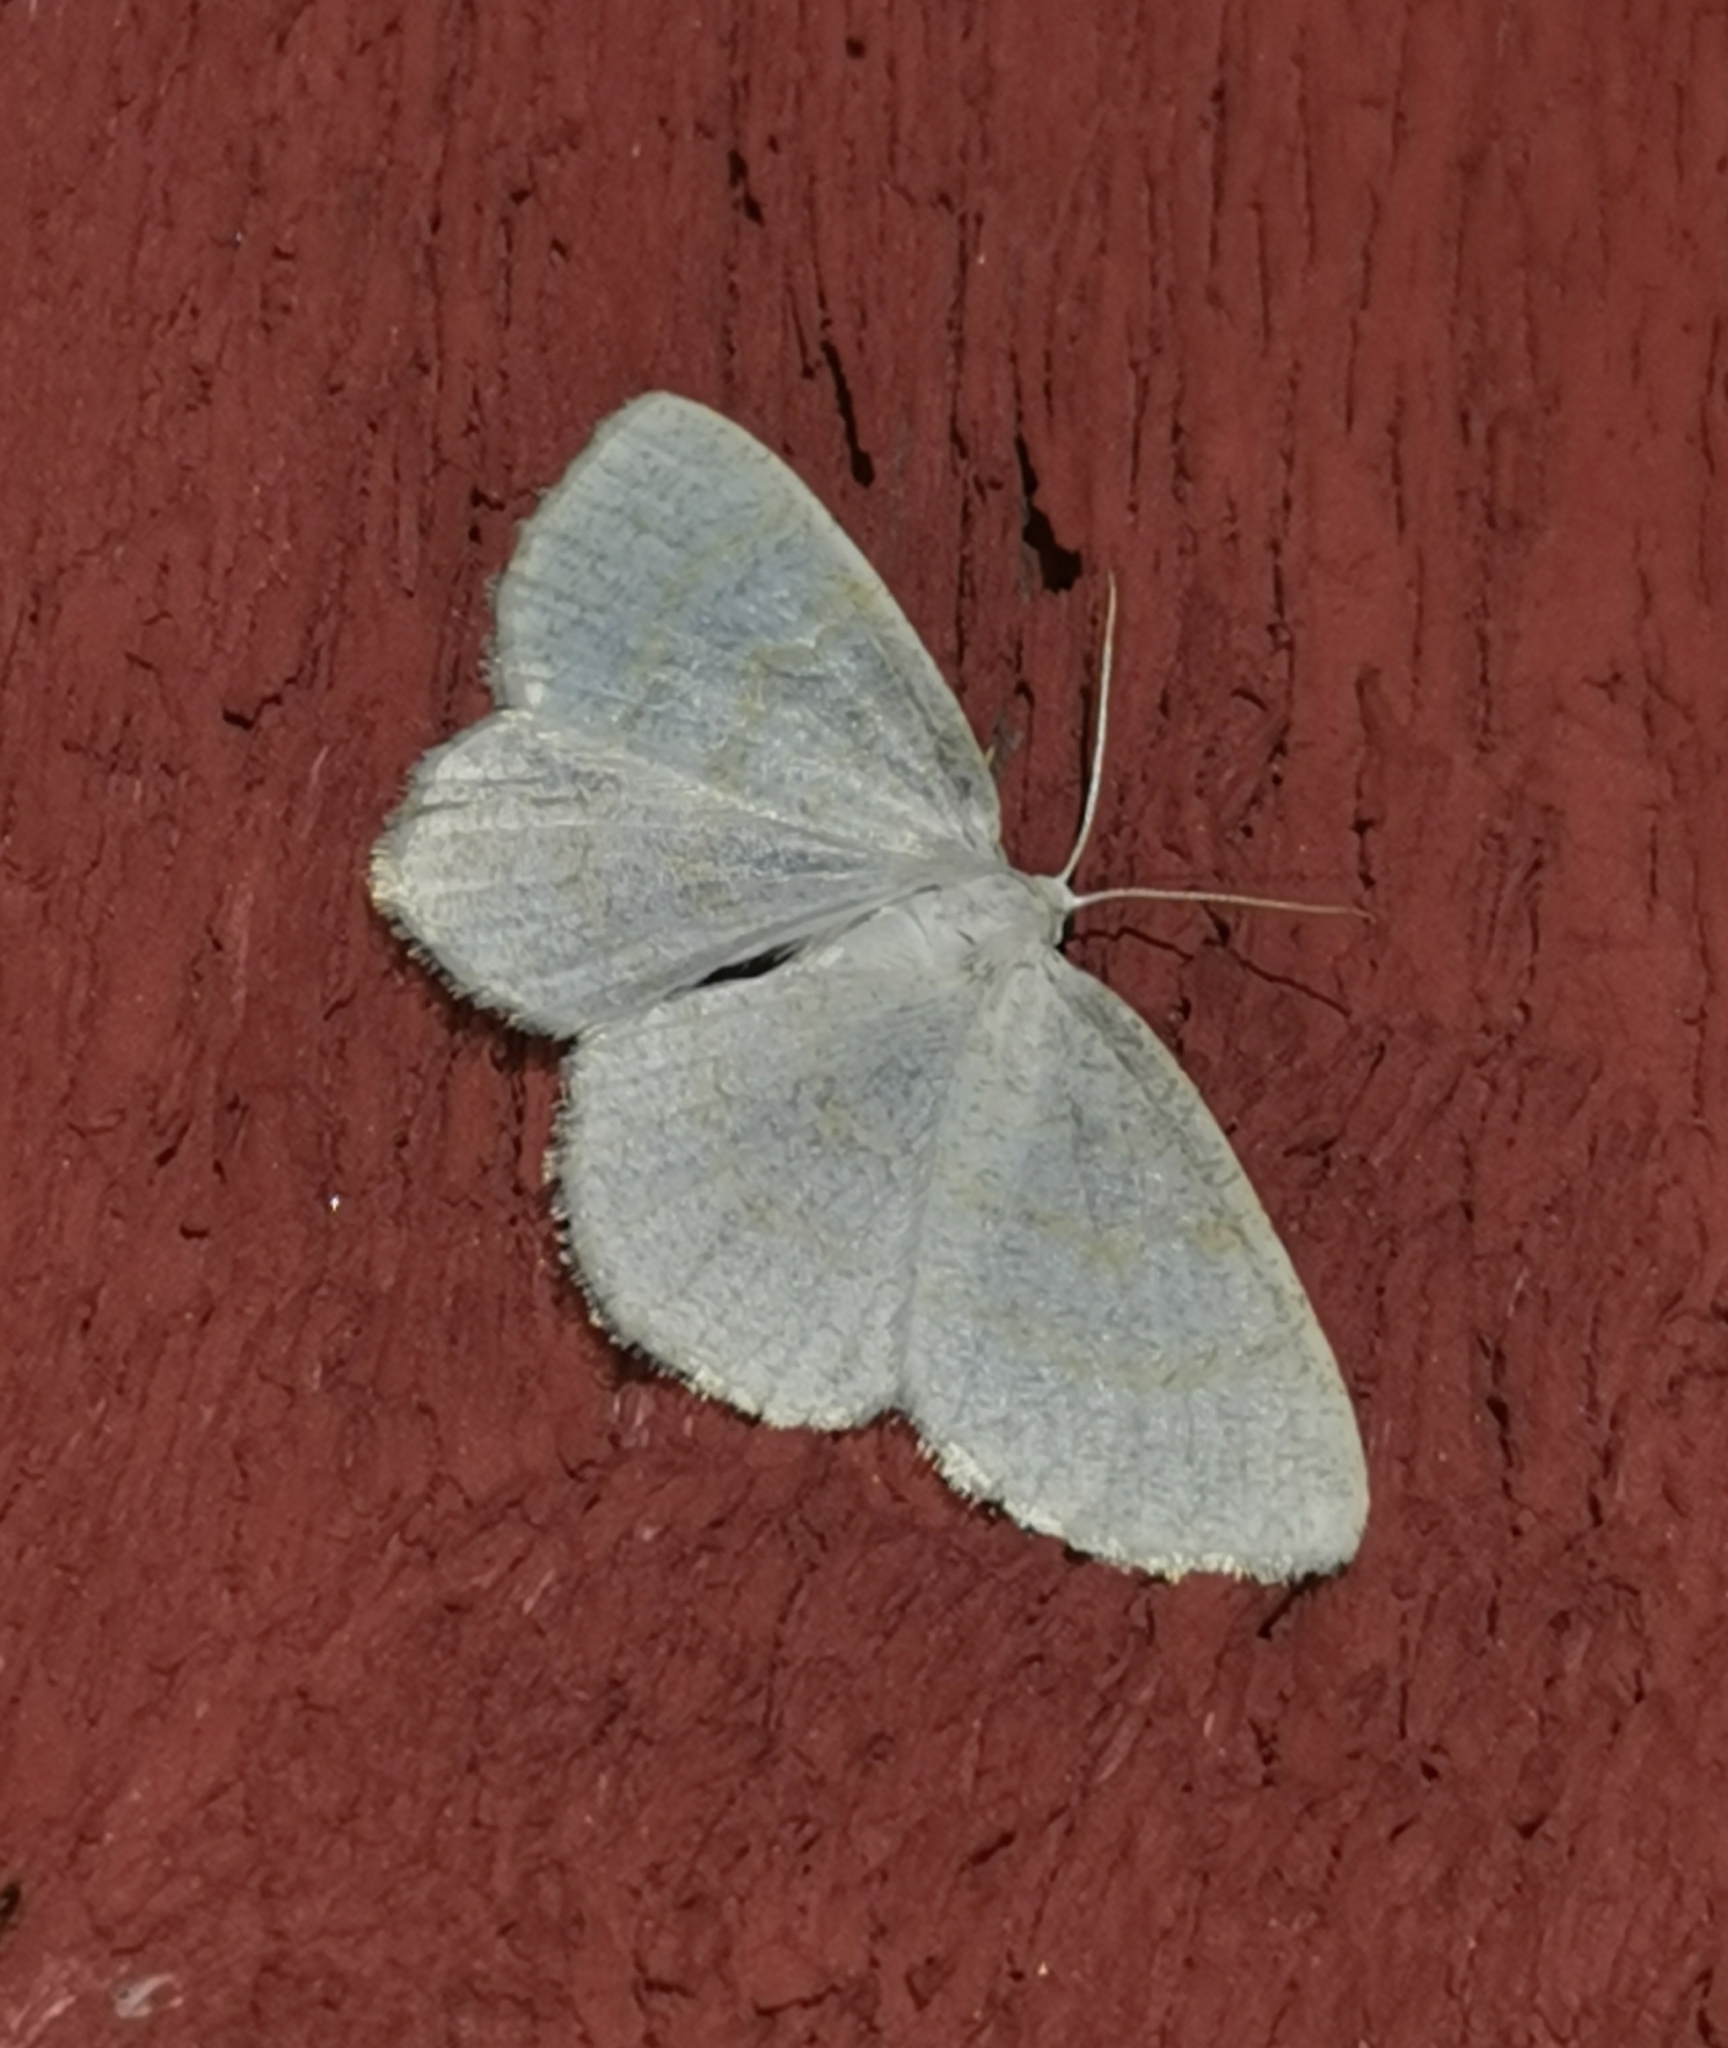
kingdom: Animalia
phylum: Arthropoda
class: Insecta
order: Lepidoptera
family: Geometridae
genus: Cabera
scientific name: Cabera exanthemata
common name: Common wave
